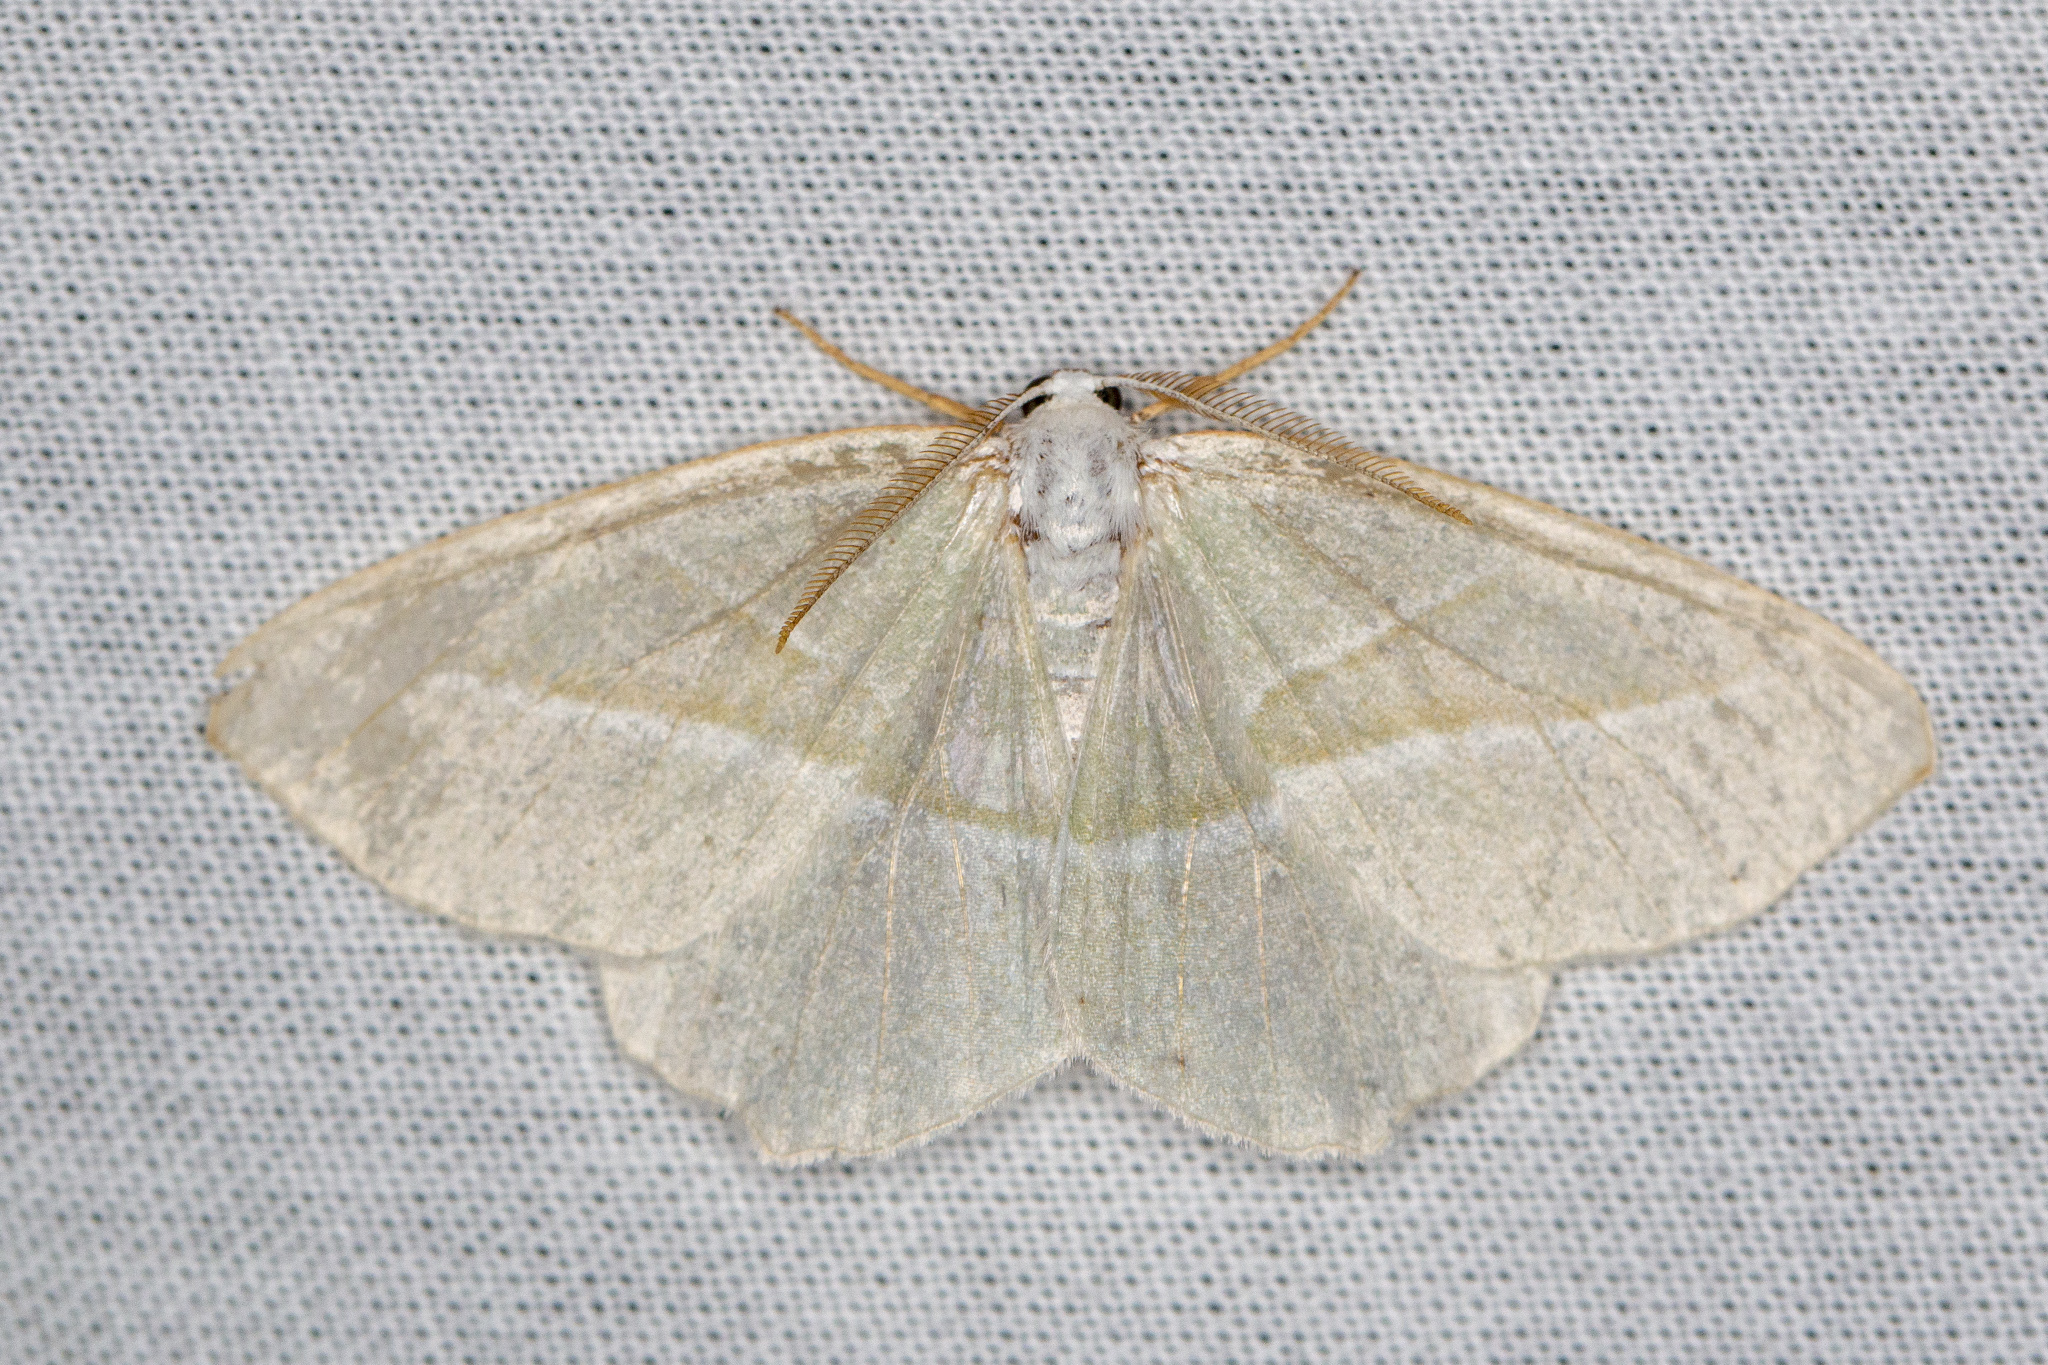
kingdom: Animalia
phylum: Arthropoda
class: Insecta
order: Lepidoptera
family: Geometridae
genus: Campaea
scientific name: Campaea margaritaria
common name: Light emerald
